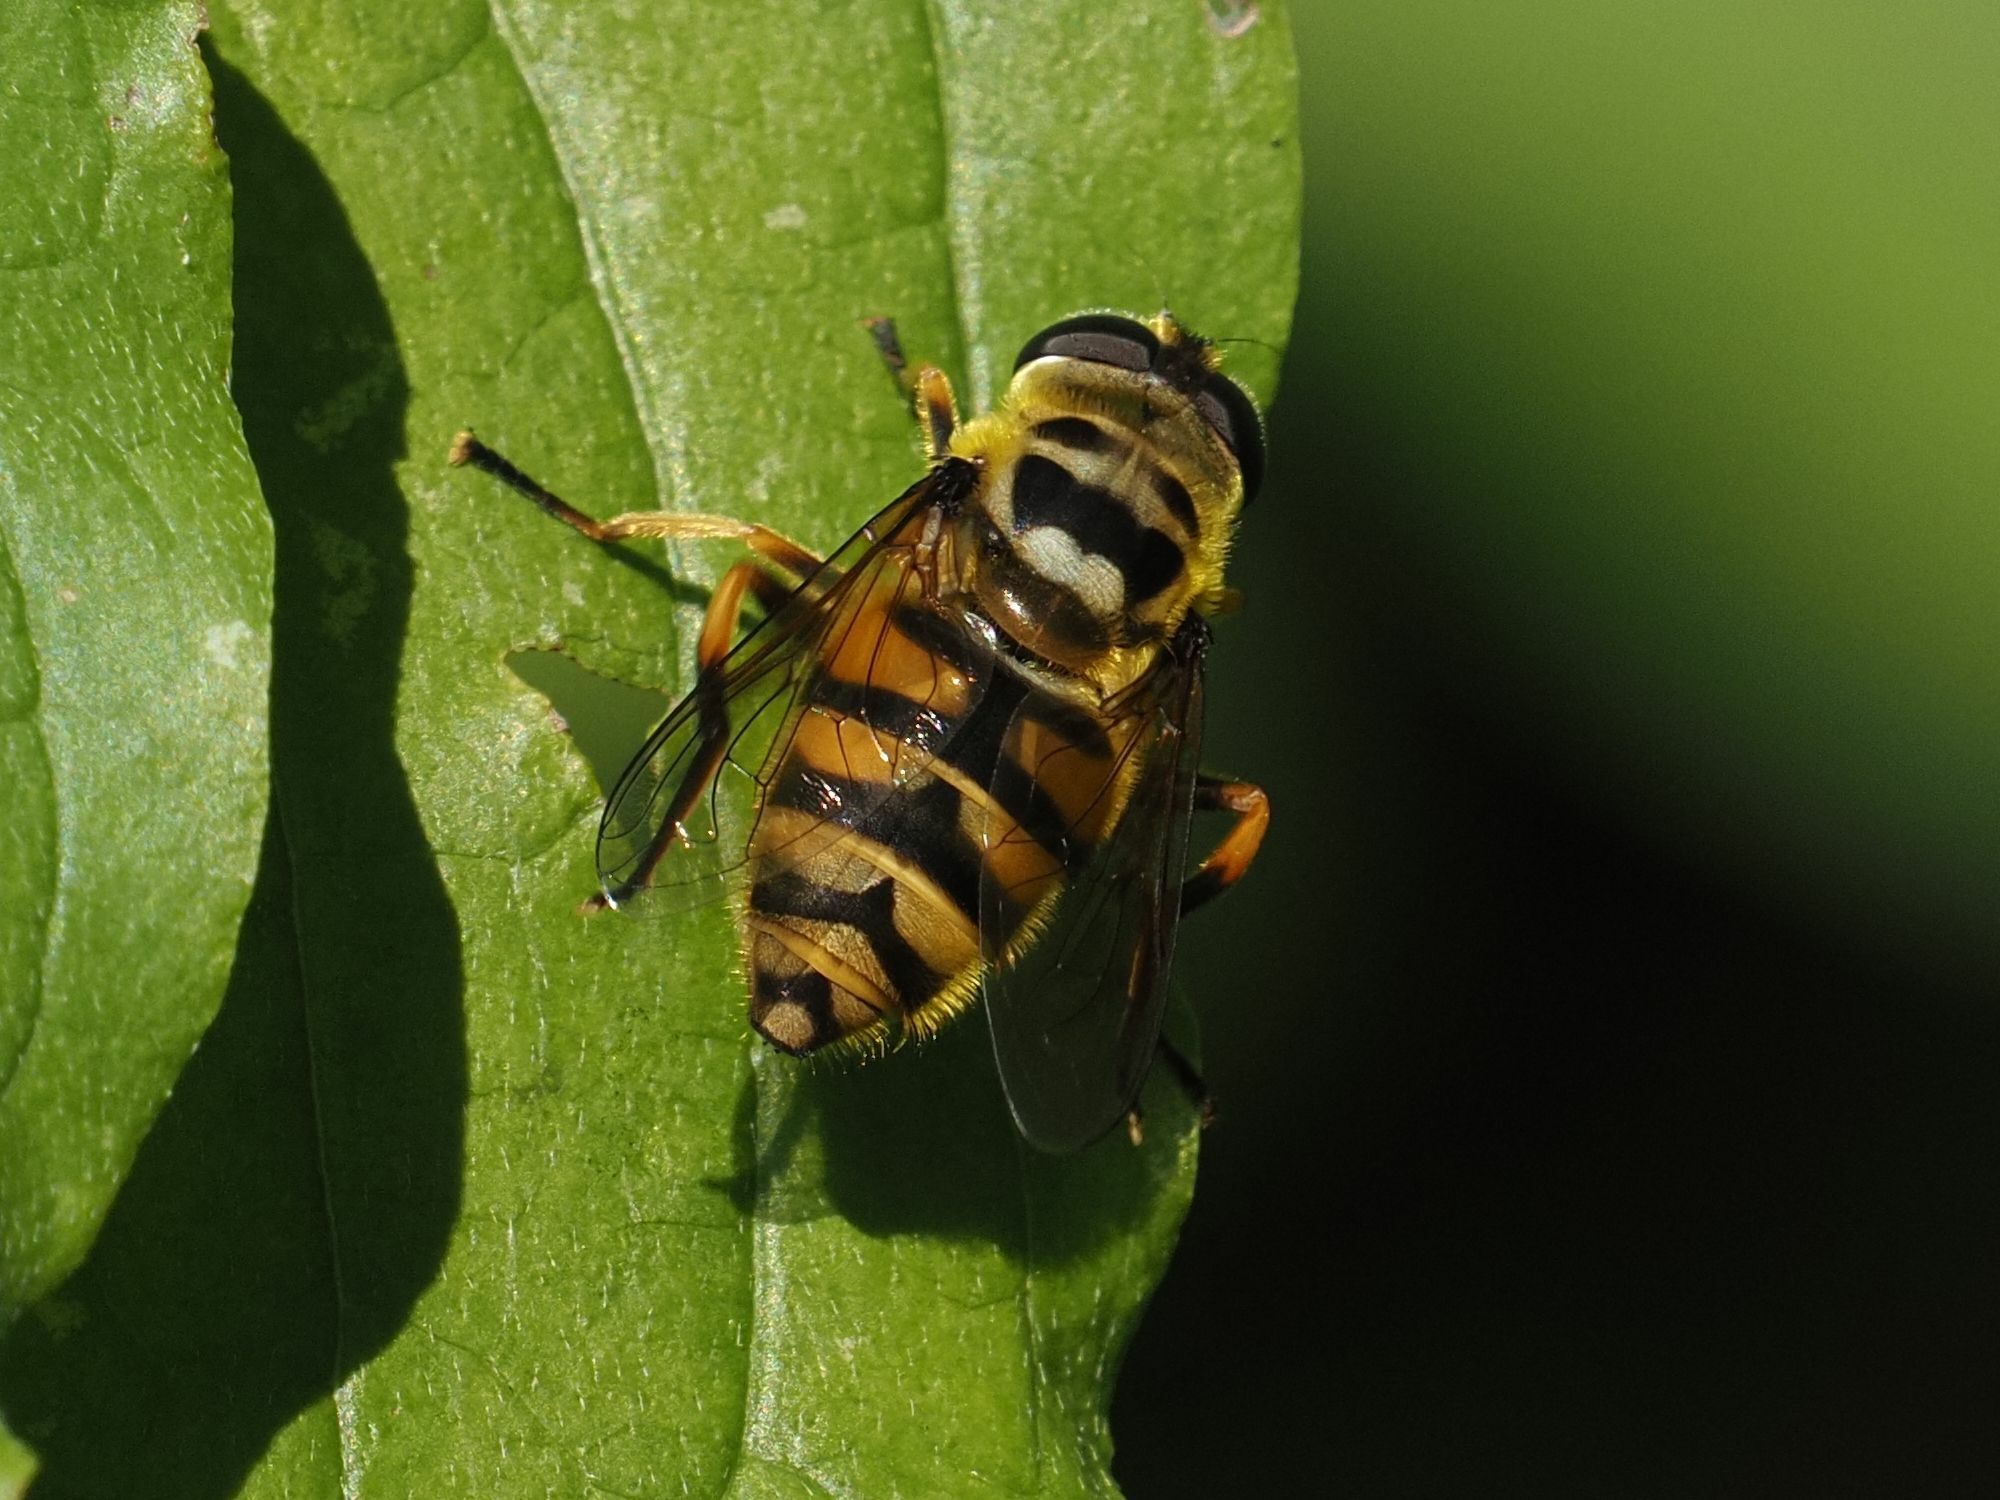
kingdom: Animalia
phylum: Arthropoda
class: Insecta
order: Diptera
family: Syrphidae
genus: Myathropa
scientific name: Myathropa florea
